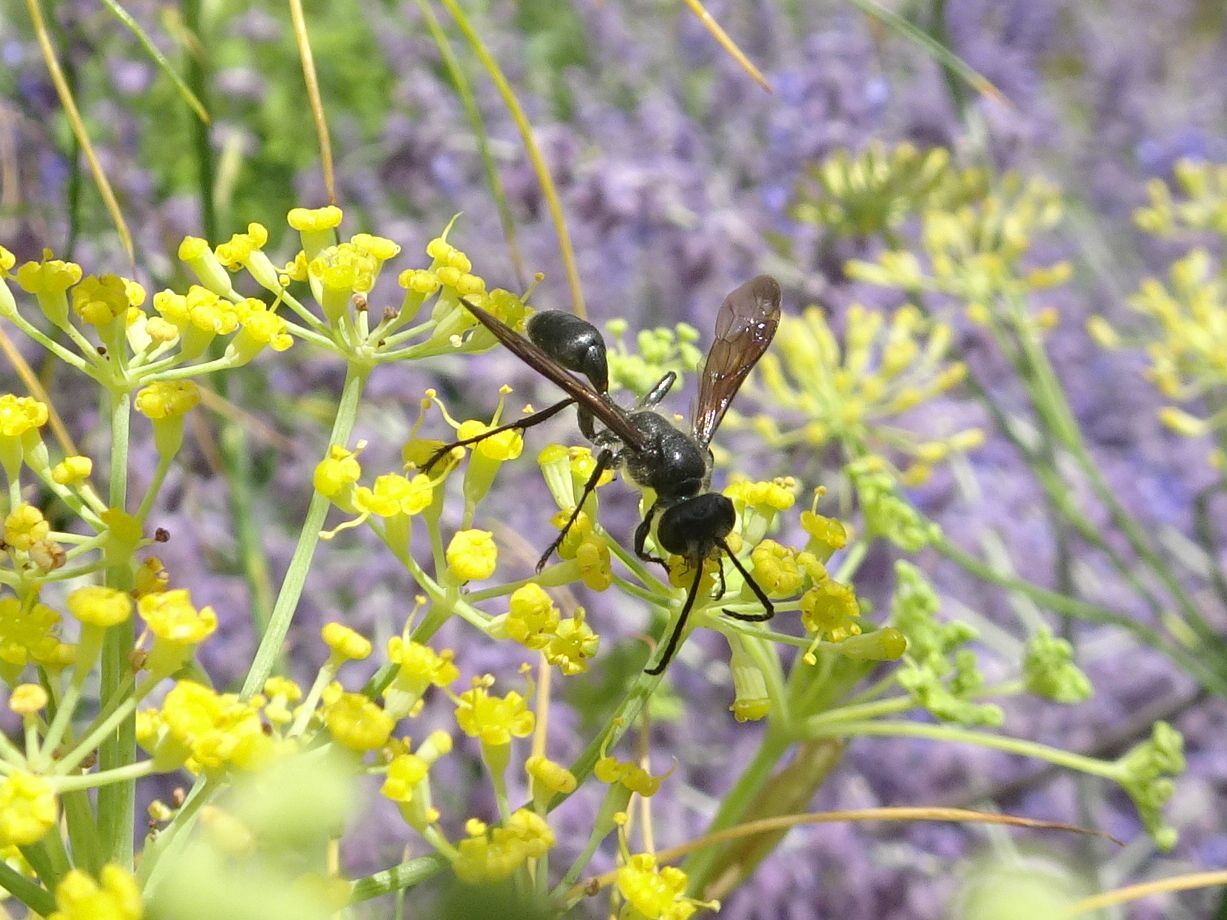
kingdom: Animalia
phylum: Arthropoda
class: Insecta
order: Hymenoptera
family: Sphecidae
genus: Isodontia
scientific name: Isodontia mexicana
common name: Mud dauber
